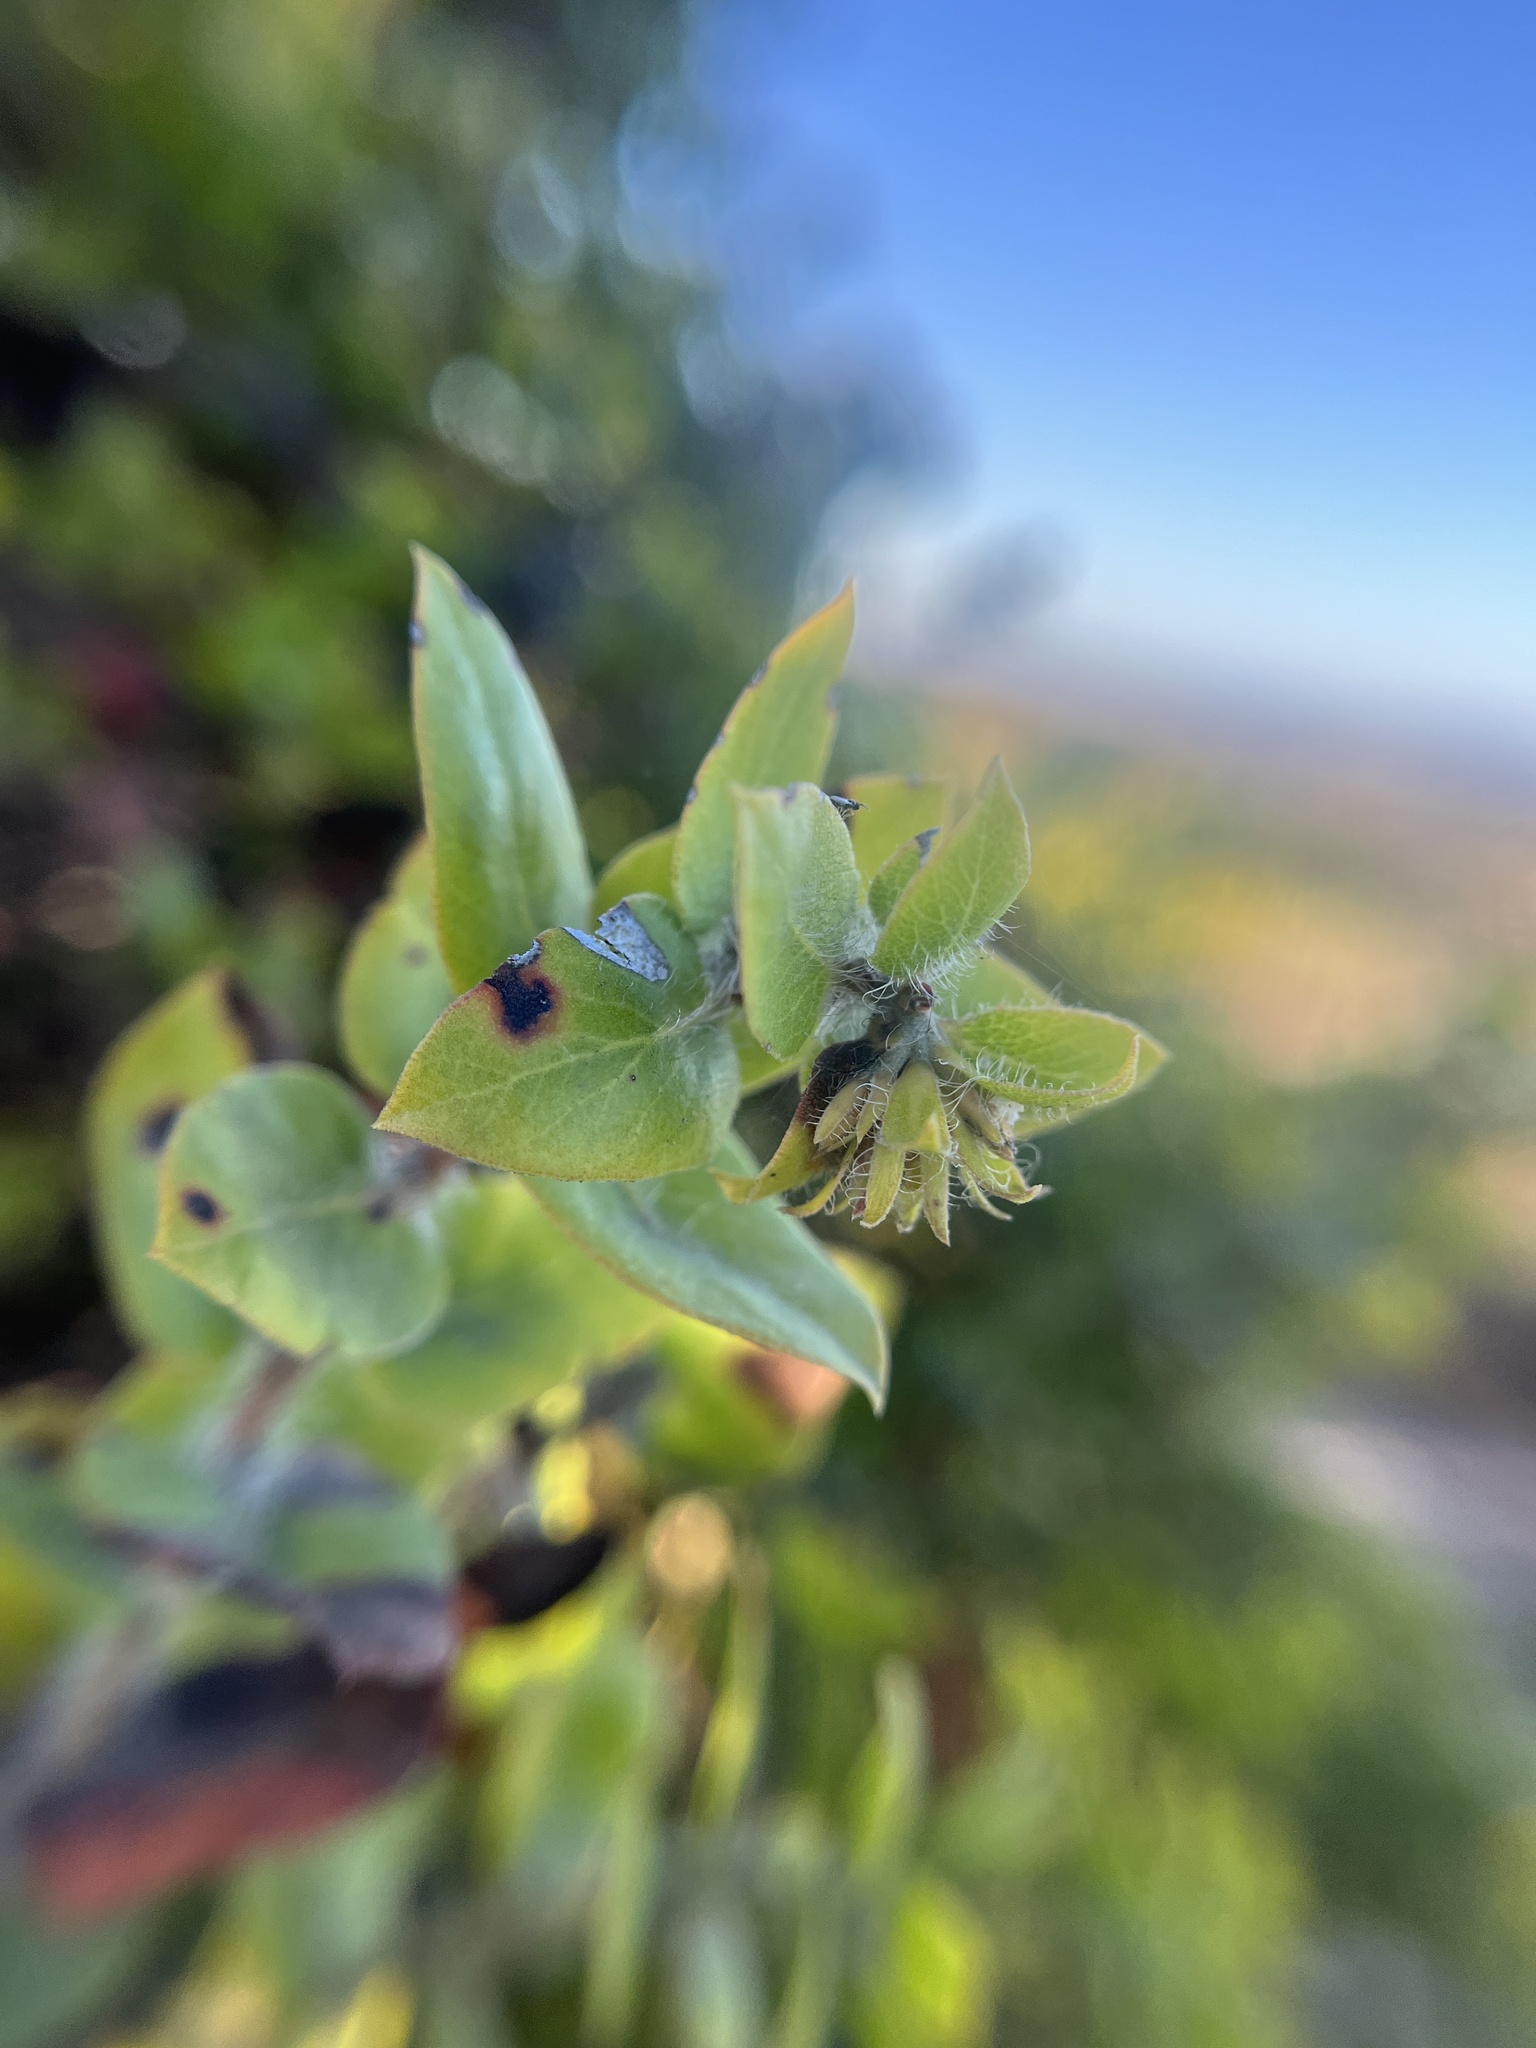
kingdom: Plantae
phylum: Tracheophyta
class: Magnoliopsida
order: Ericales
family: Ericaceae
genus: Arctostaphylos
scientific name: Arctostaphylos purissima
